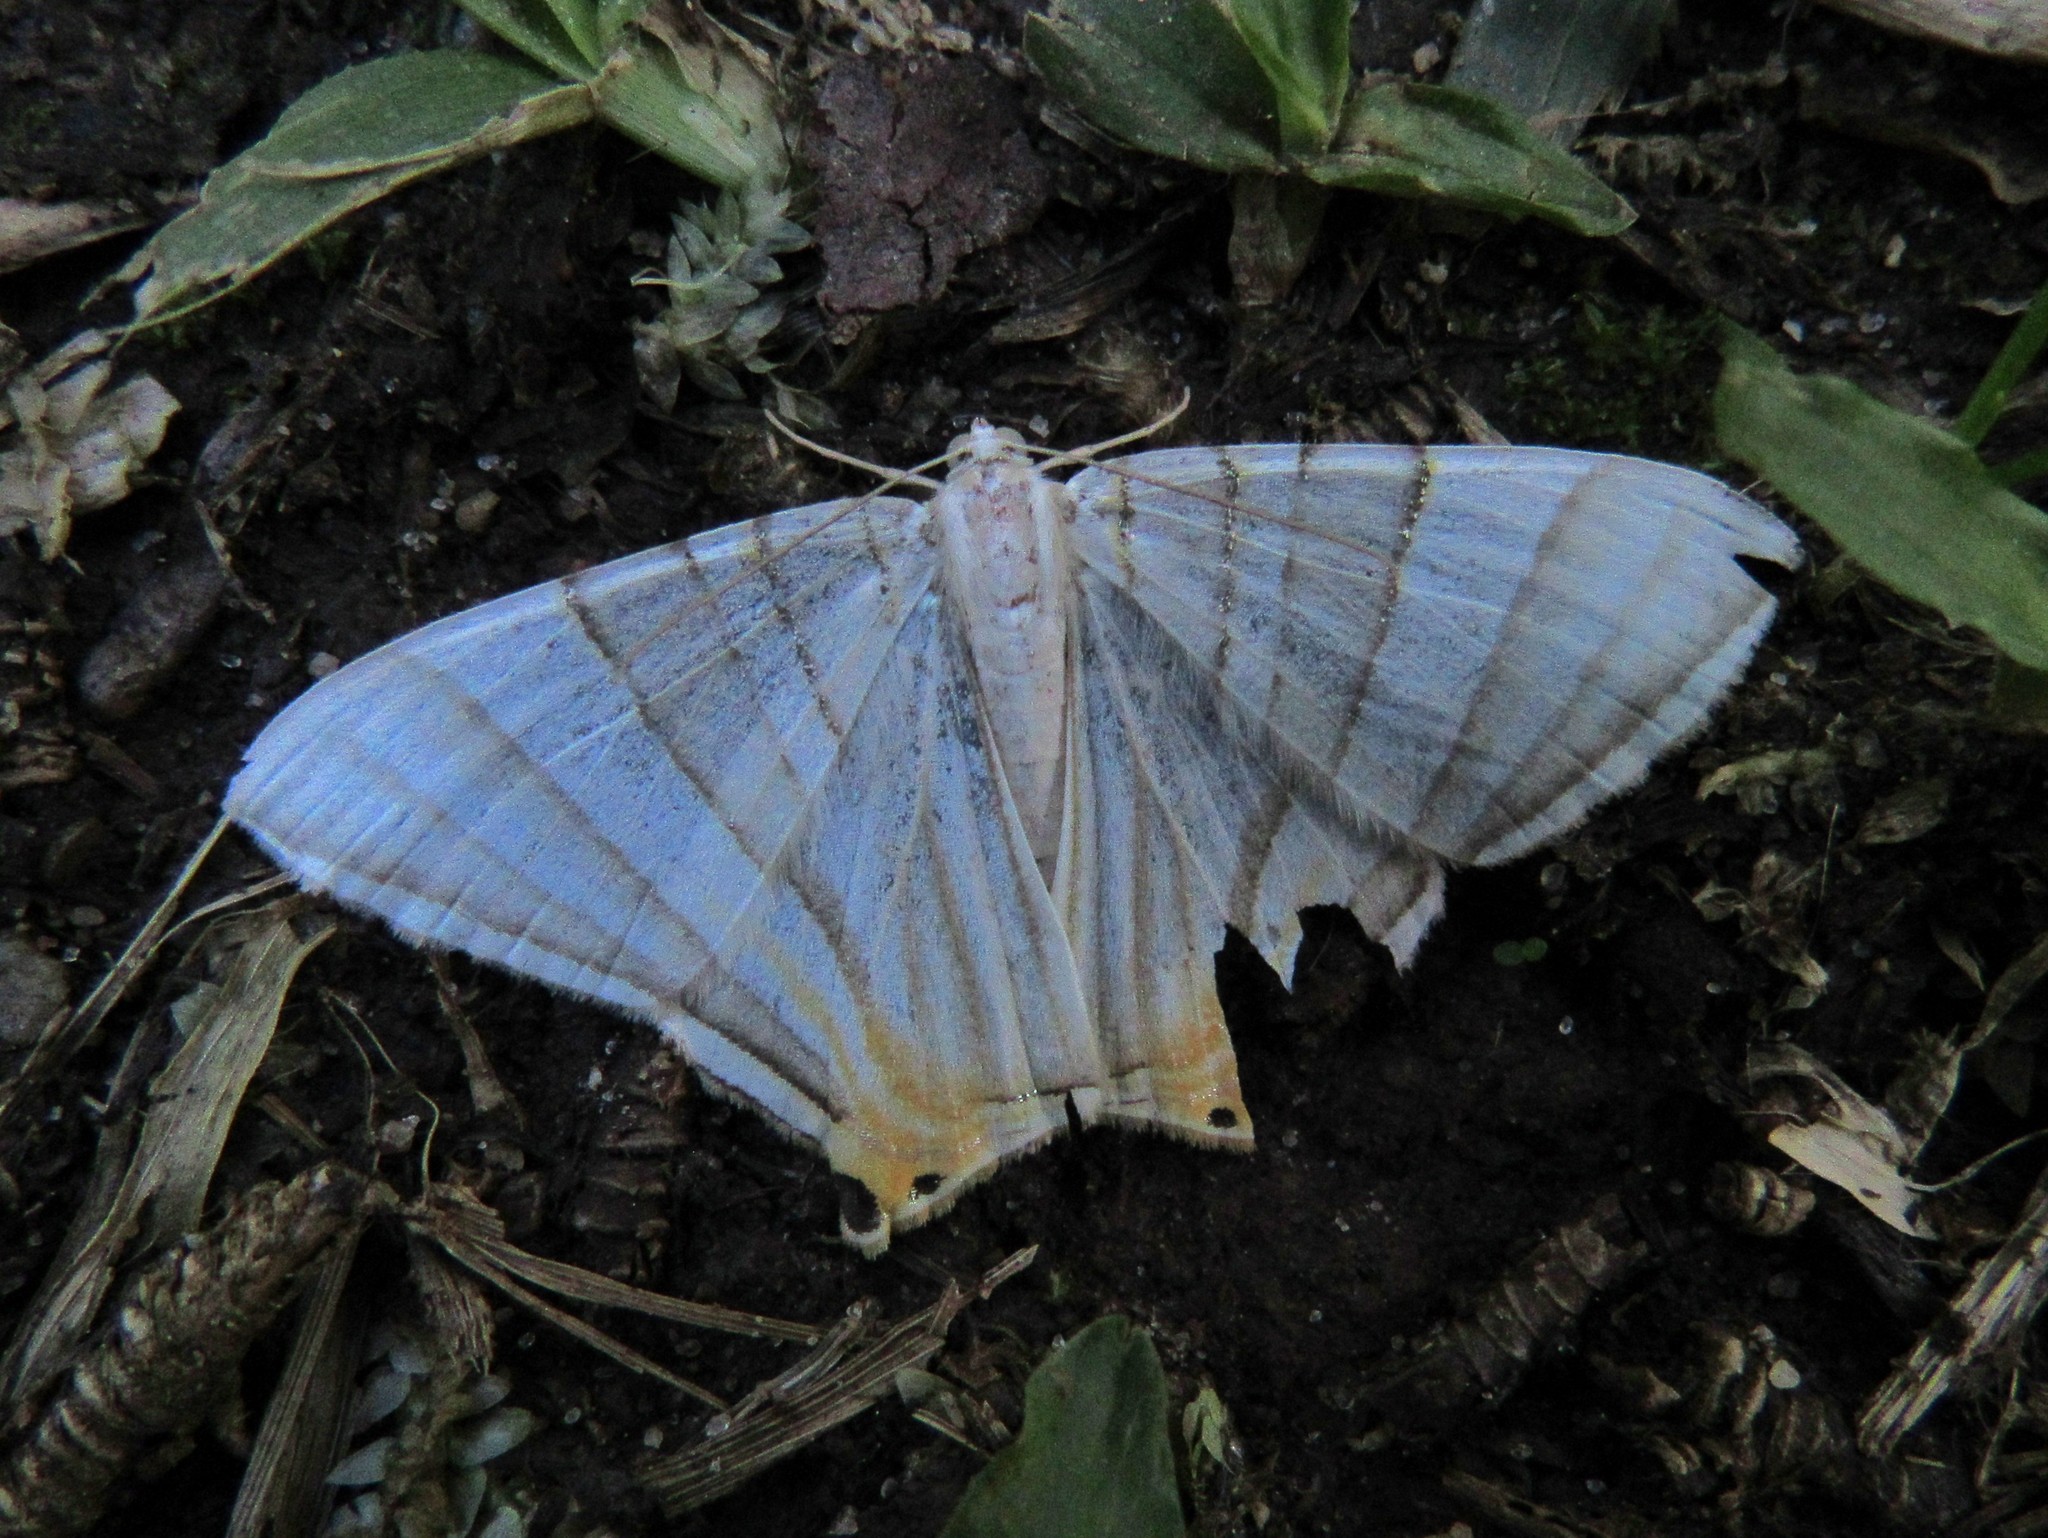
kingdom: Animalia
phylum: Arthropoda
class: Insecta
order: Lepidoptera
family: Geometridae
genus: Phrygionis
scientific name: Phrygionis platinata
